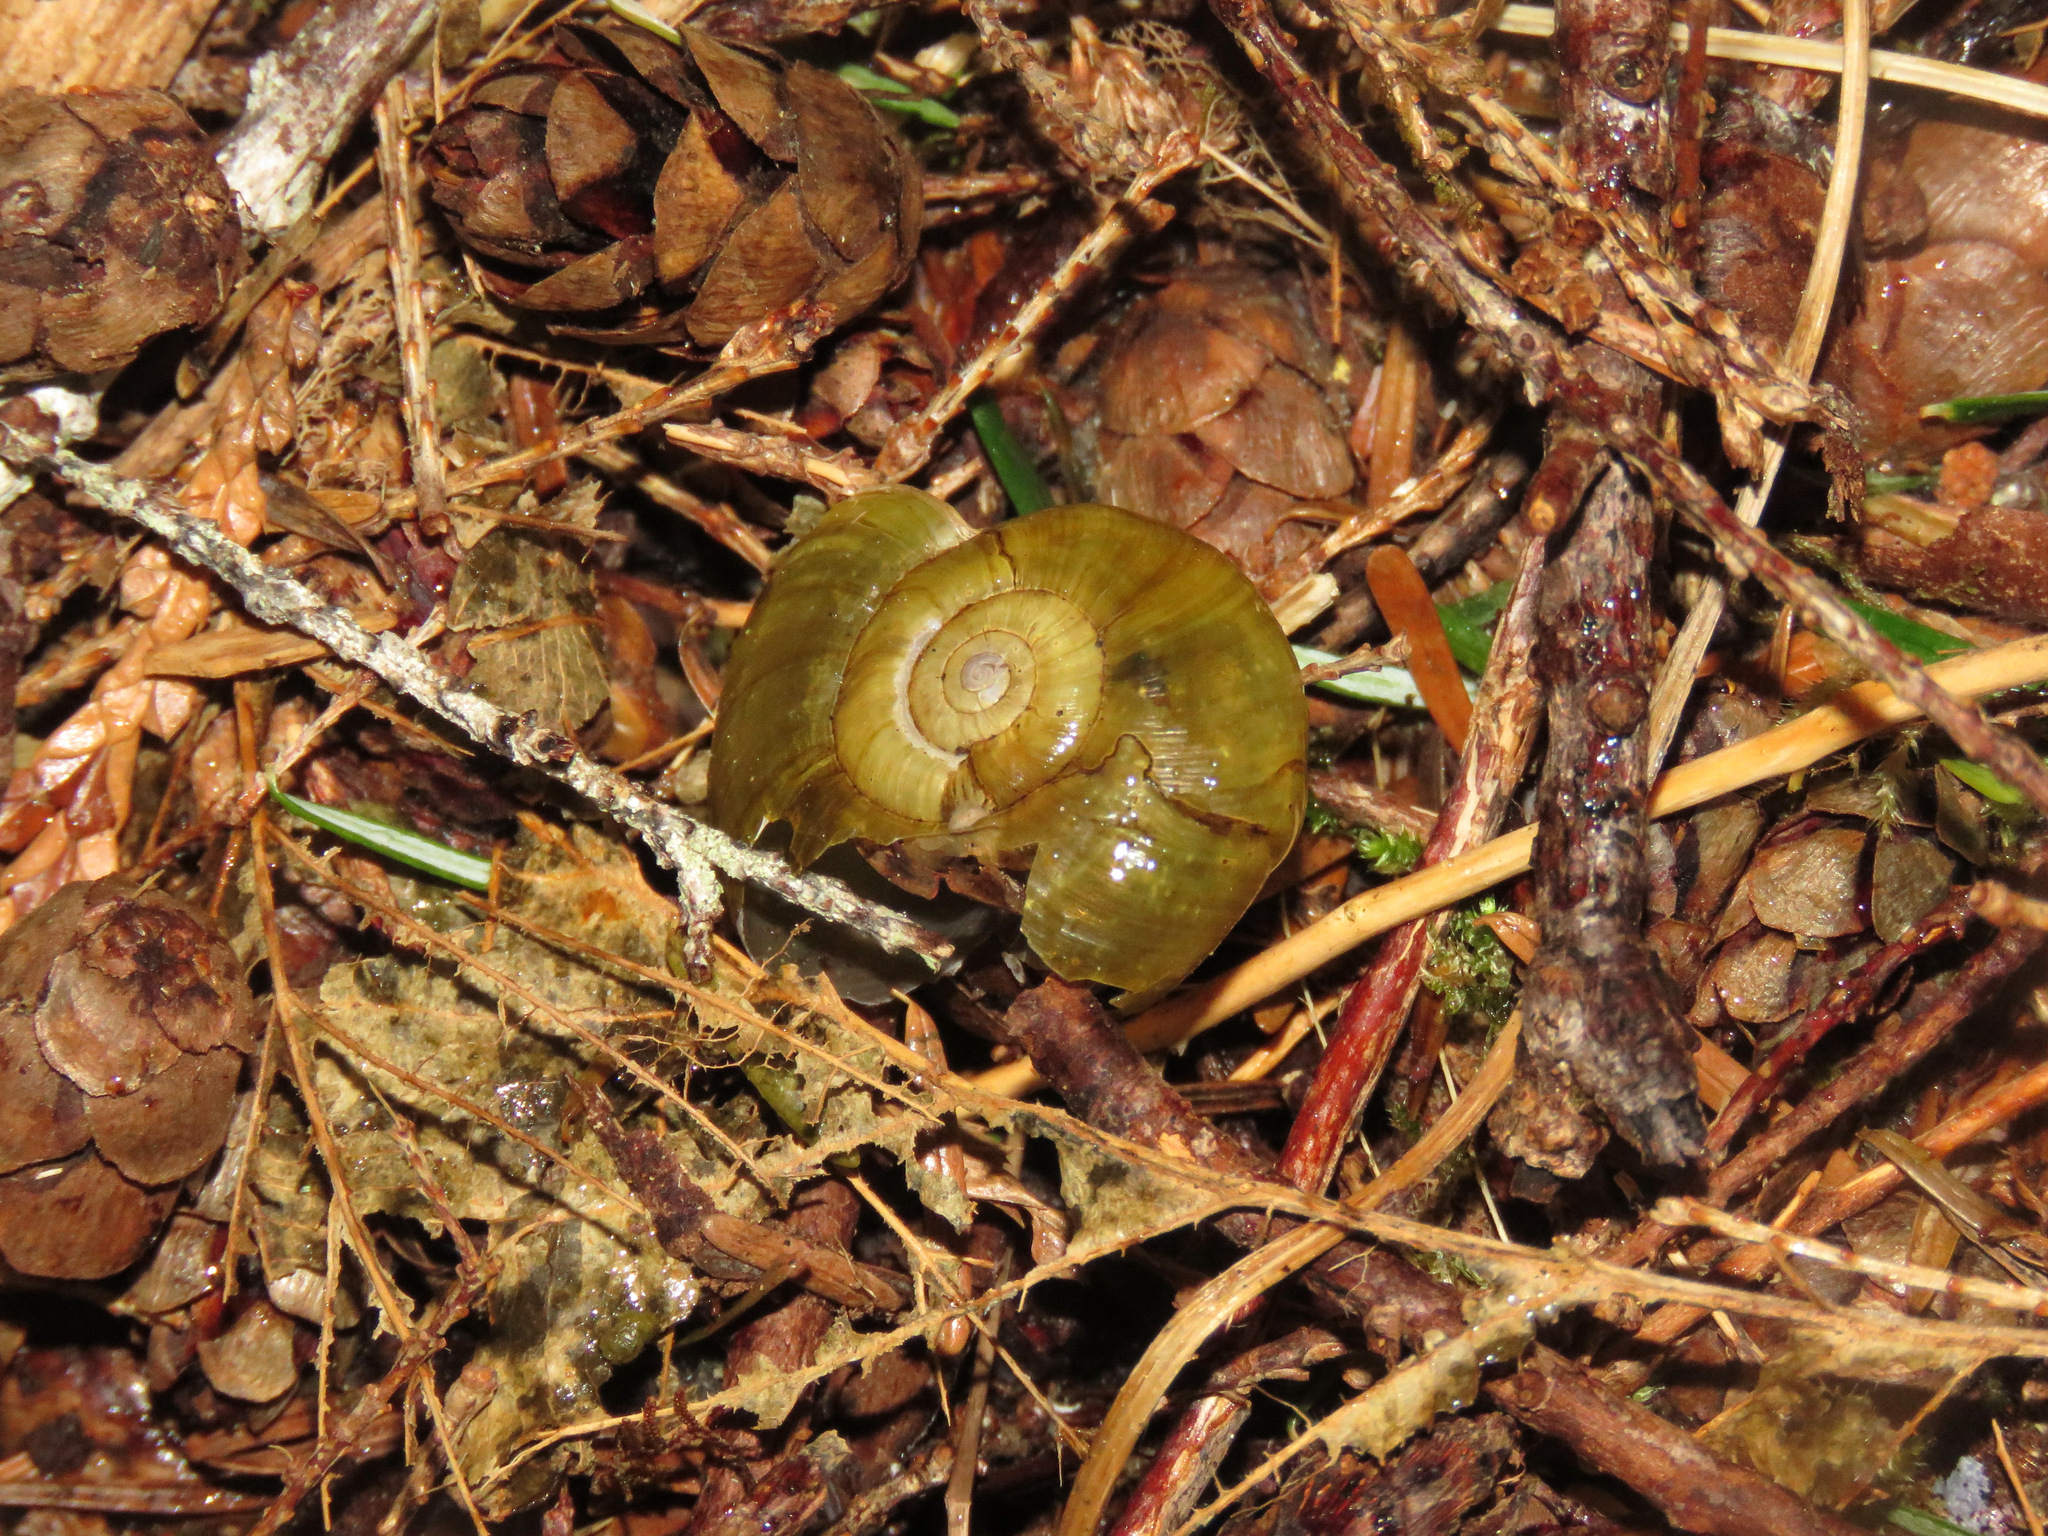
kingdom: Animalia
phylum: Mollusca
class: Gastropoda
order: Stylommatophora
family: Haplotrematidae
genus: Haplotrema
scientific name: Haplotrema vancouverense
